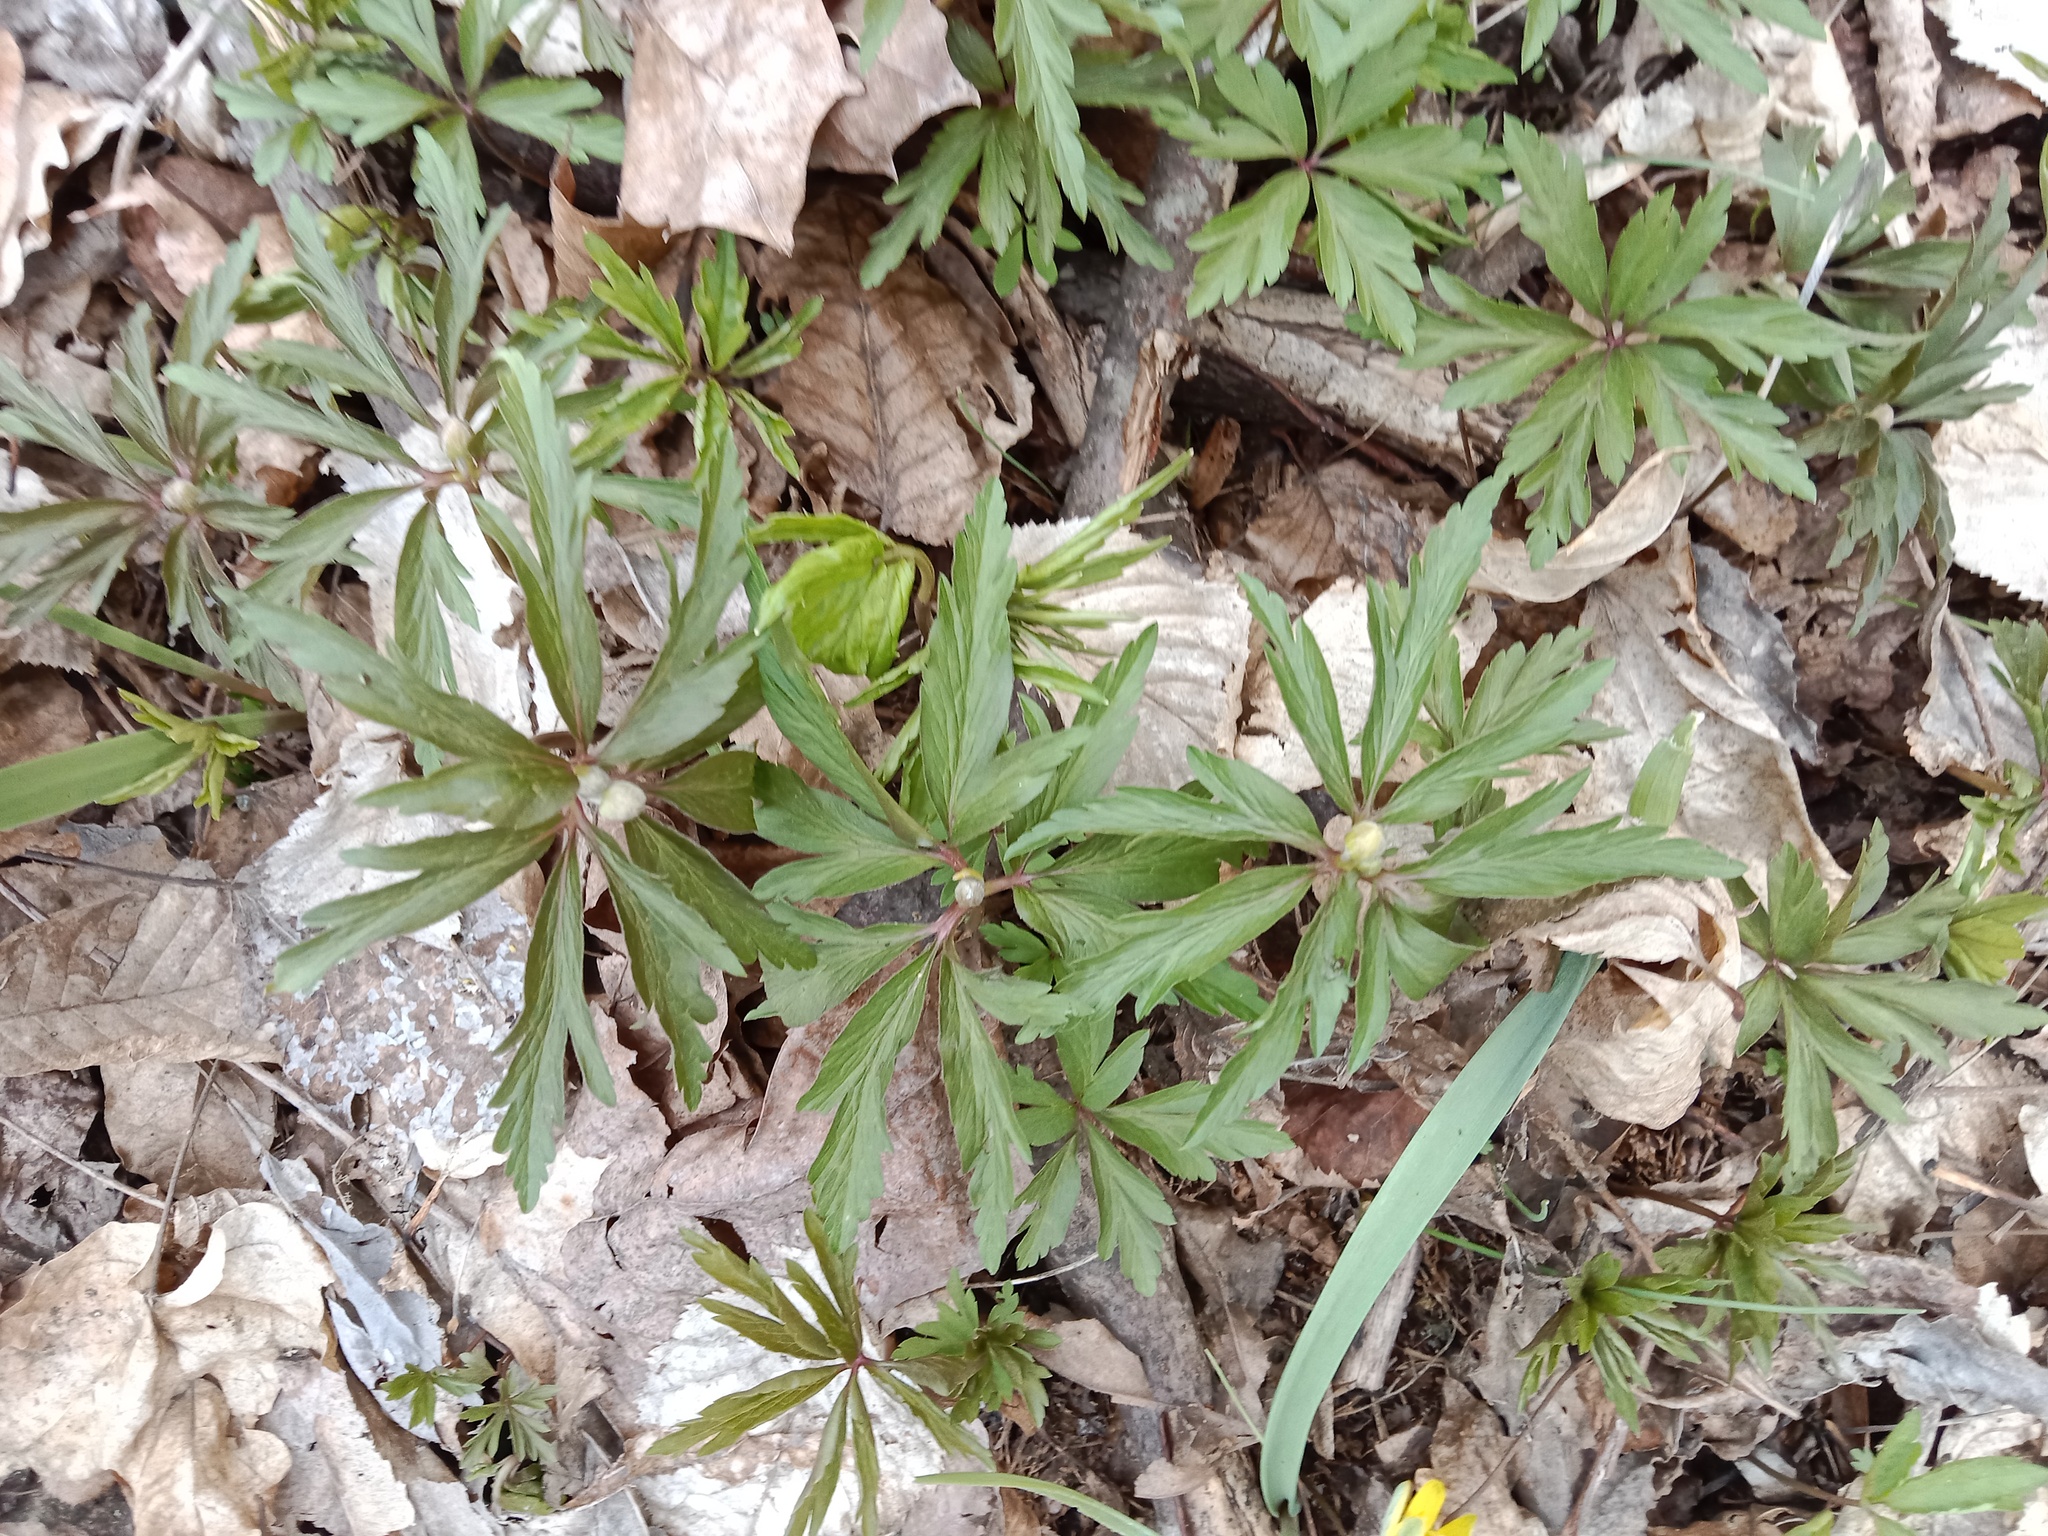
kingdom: Plantae
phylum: Tracheophyta
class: Magnoliopsida
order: Ranunculales
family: Ranunculaceae
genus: Anemone
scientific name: Anemone ranunculoides
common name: Yellow anemone
